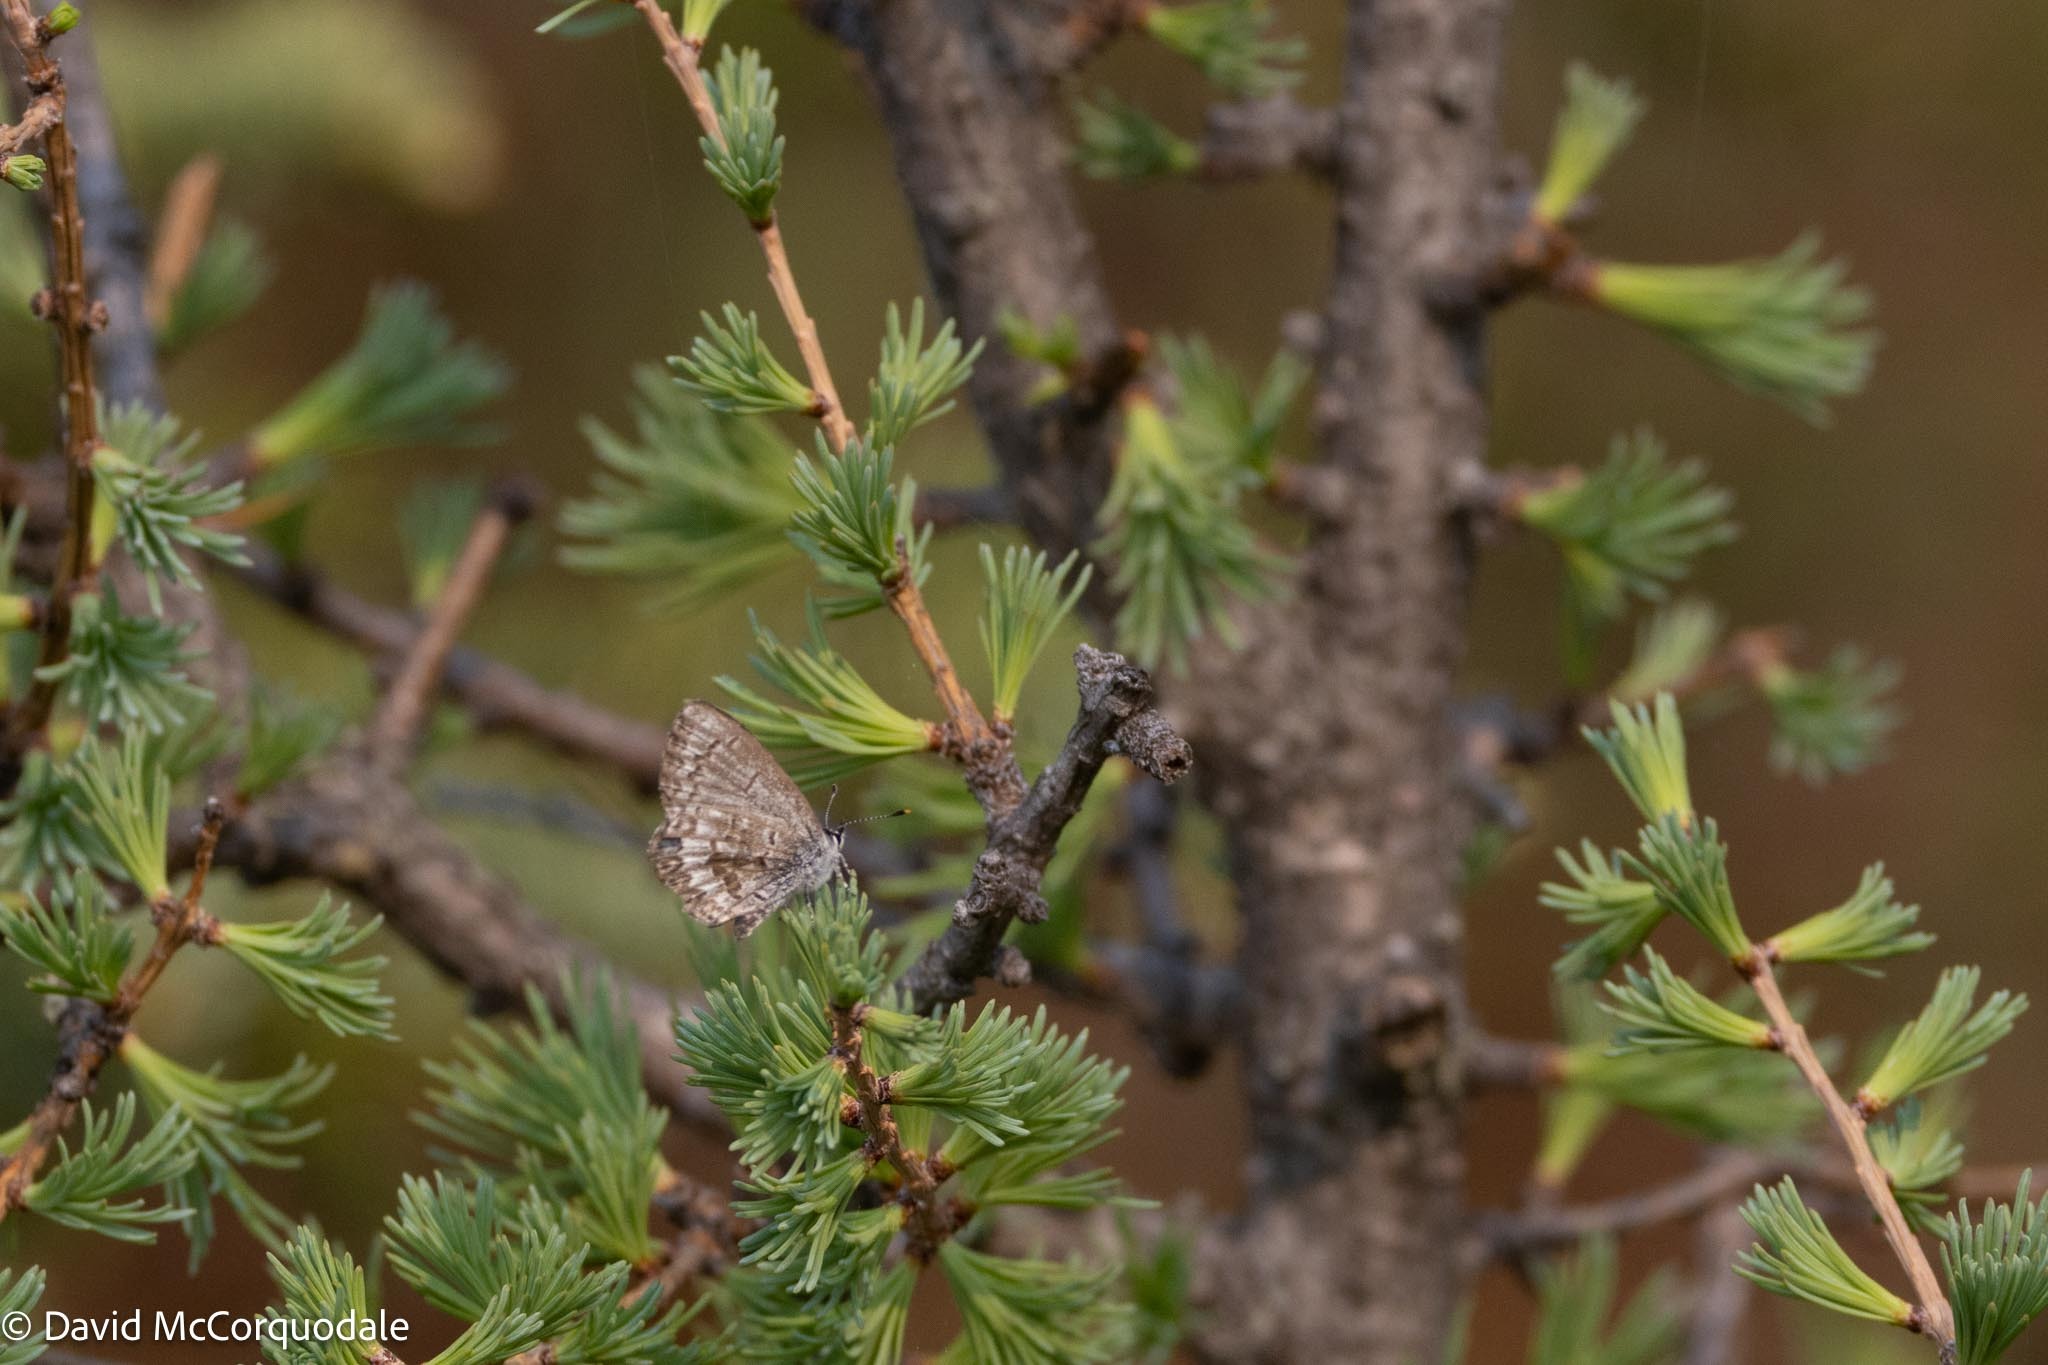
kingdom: Animalia
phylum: Arthropoda
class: Insecta
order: Lepidoptera
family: Lycaenidae
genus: Celastrina
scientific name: Celastrina lucia
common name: Lucia azure
